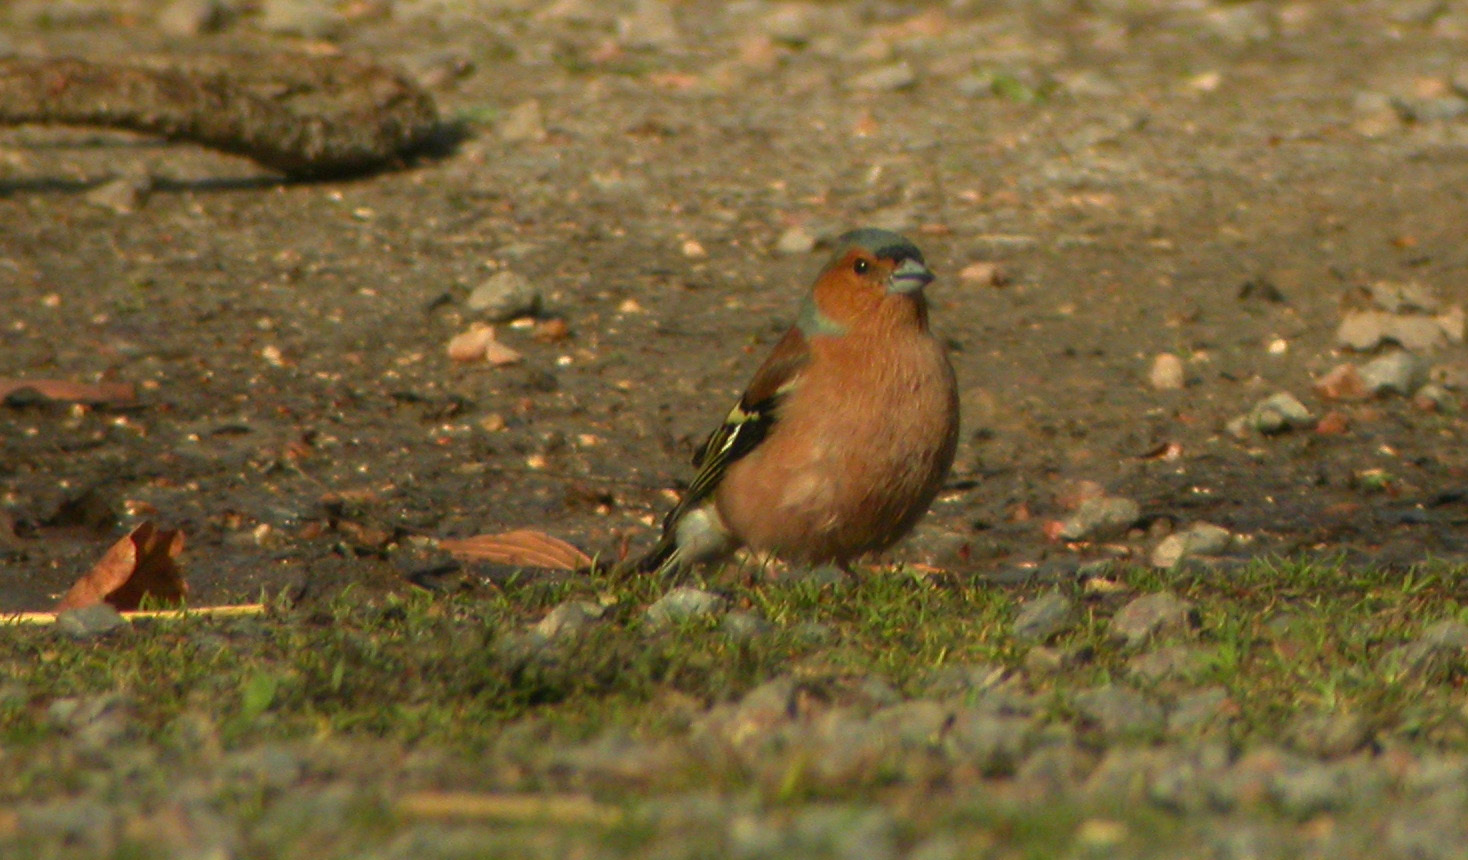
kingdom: Animalia
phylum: Chordata
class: Aves
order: Passeriformes
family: Fringillidae
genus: Fringilla
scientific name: Fringilla coelebs
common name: Common chaffinch
